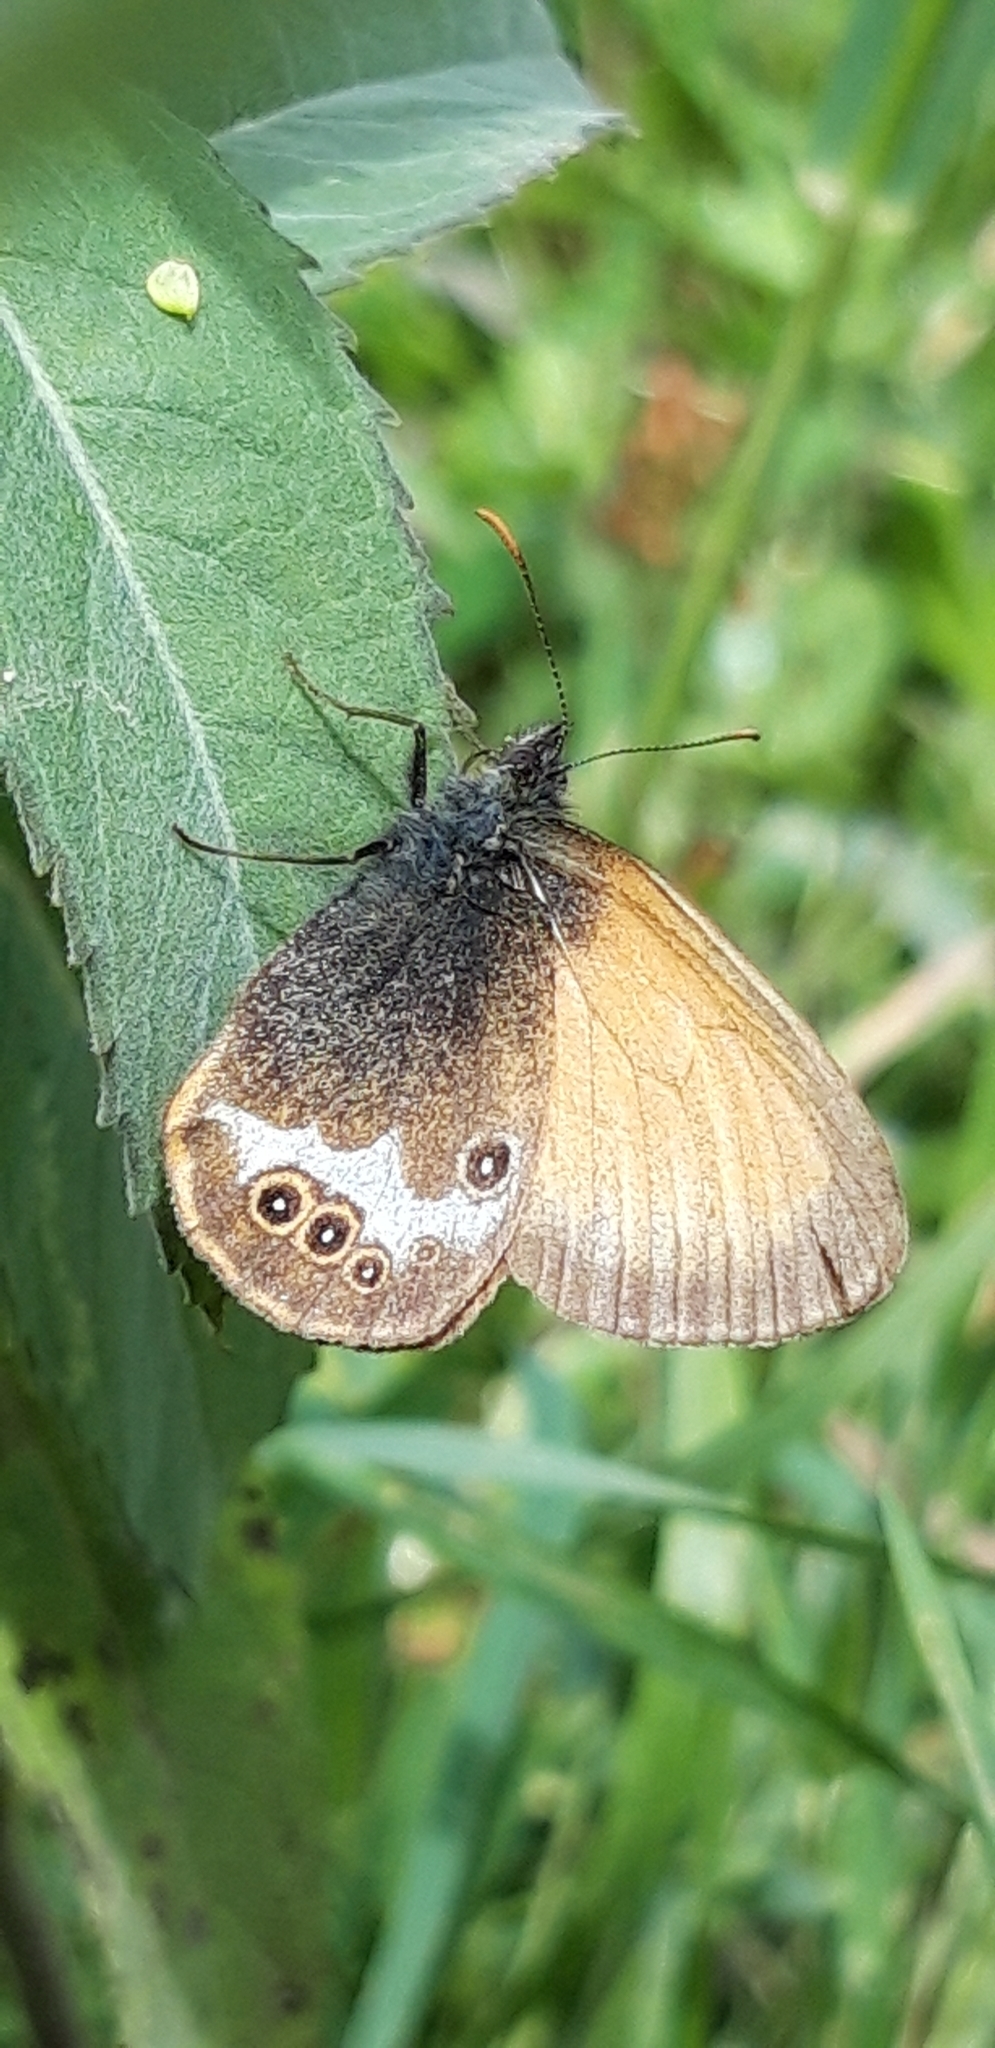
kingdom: Animalia
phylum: Arthropoda
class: Insecta
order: Lepidoptera
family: Nymphalidae
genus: Coenonympha
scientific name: Coenonympha arcania
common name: Pearly heath
